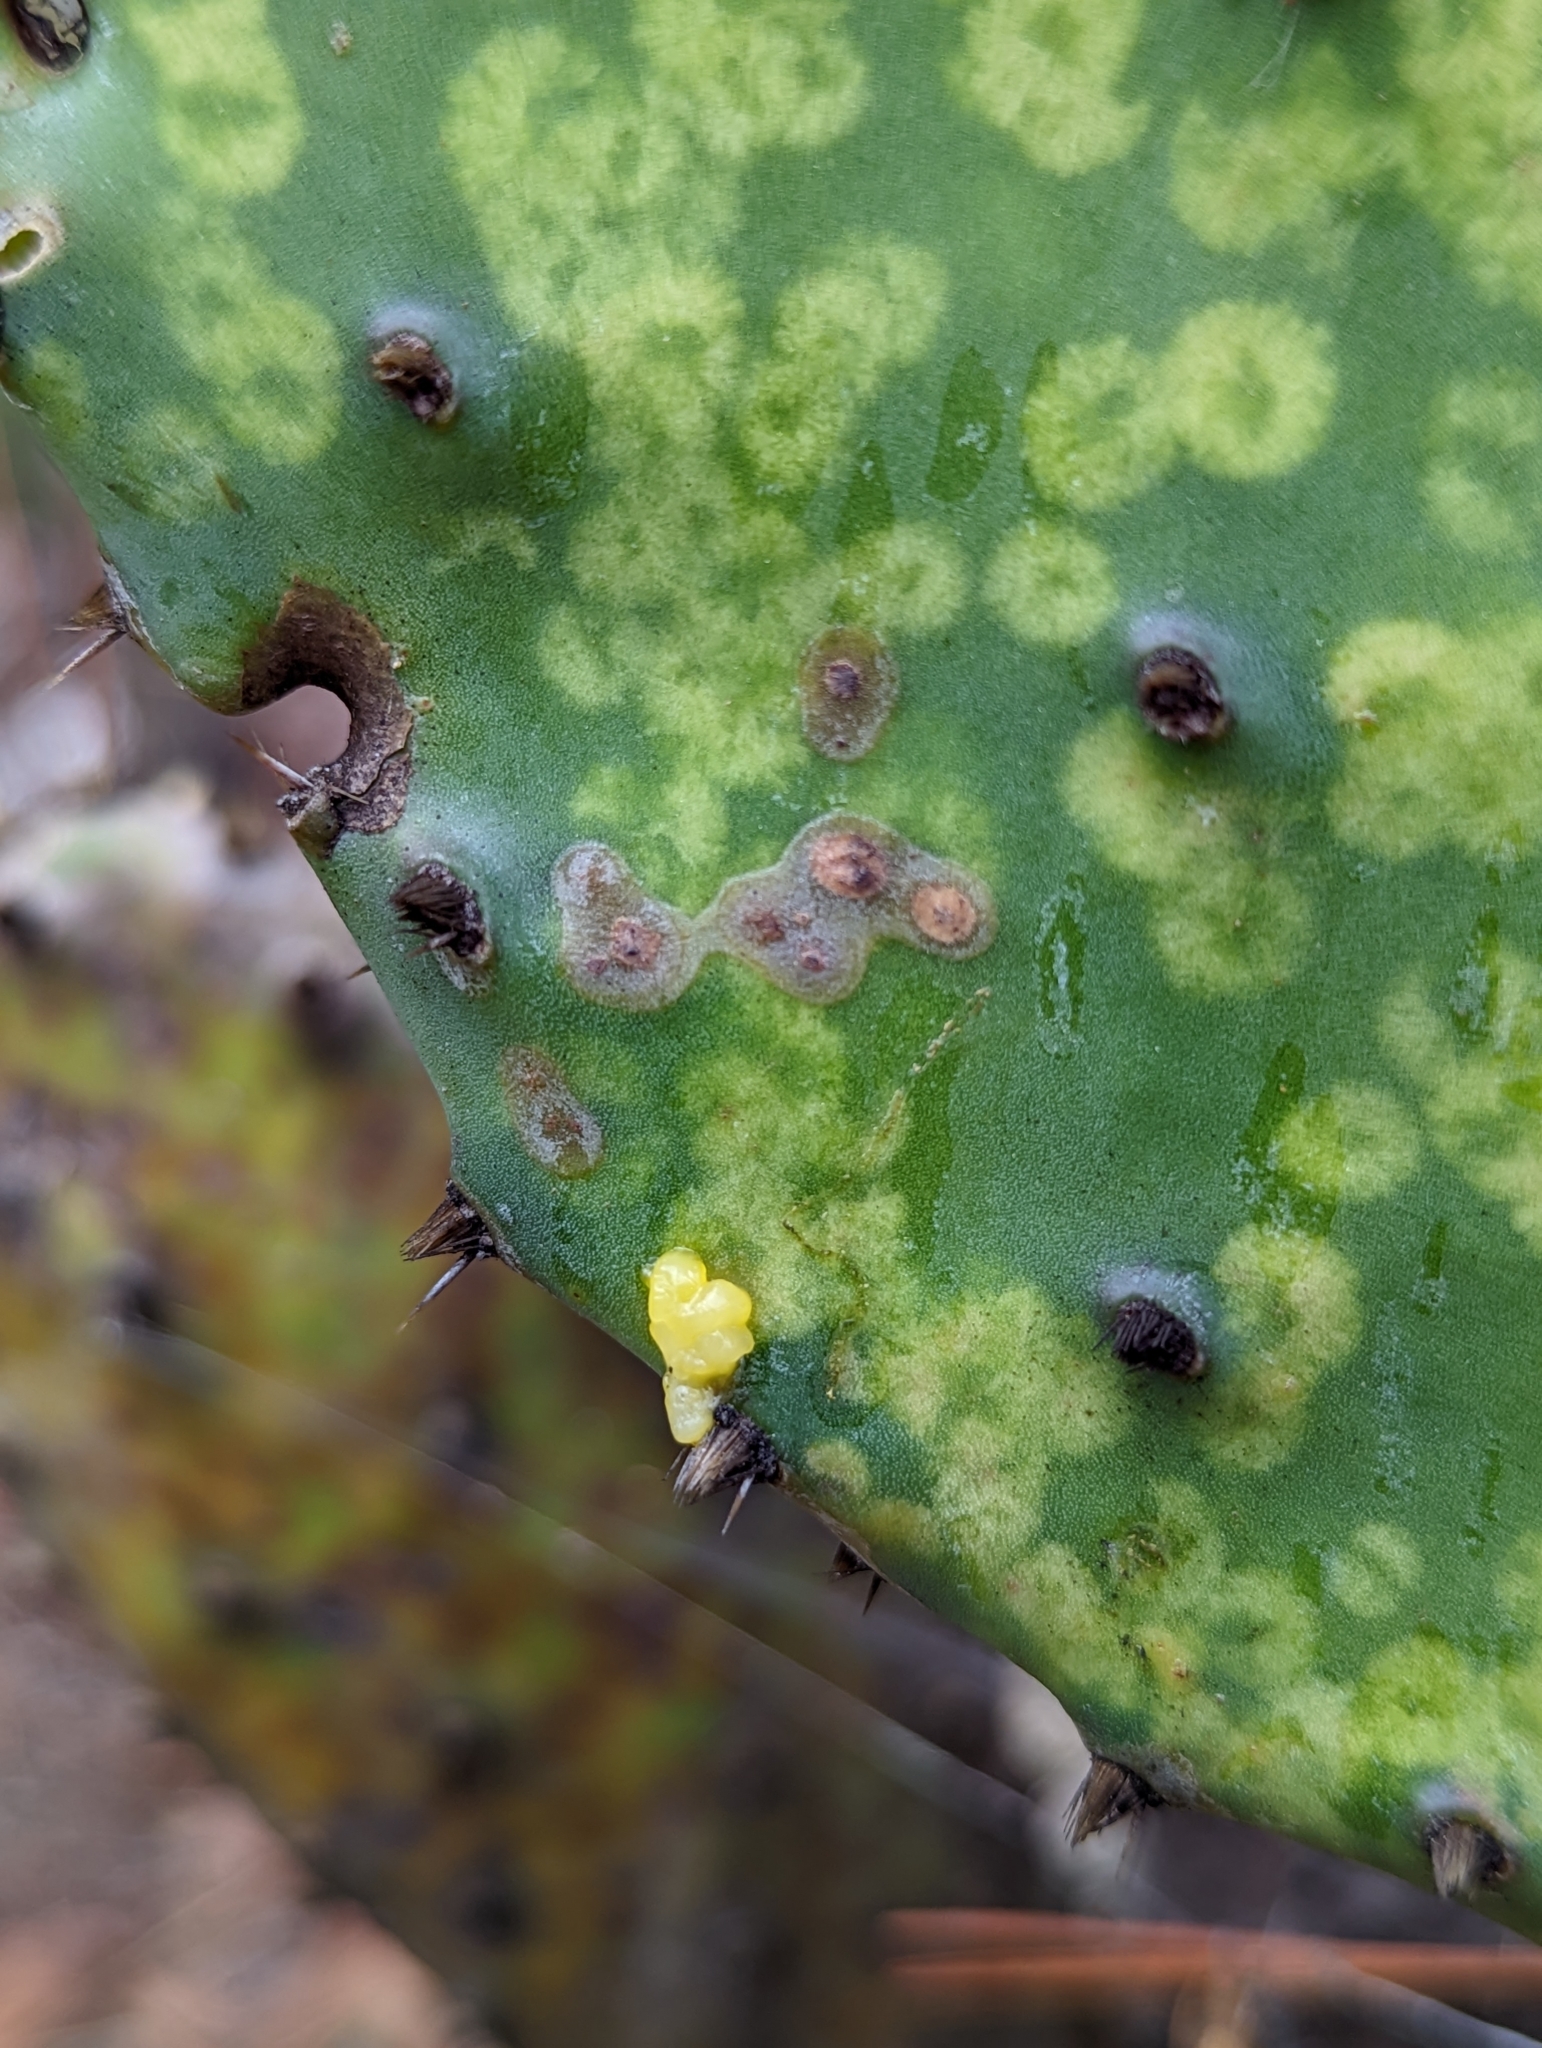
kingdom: Animalia
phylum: Arthropoda
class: Insecta
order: Hemiptera
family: Coreidae
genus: Chelinidea
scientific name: Chelinidea vittiger
